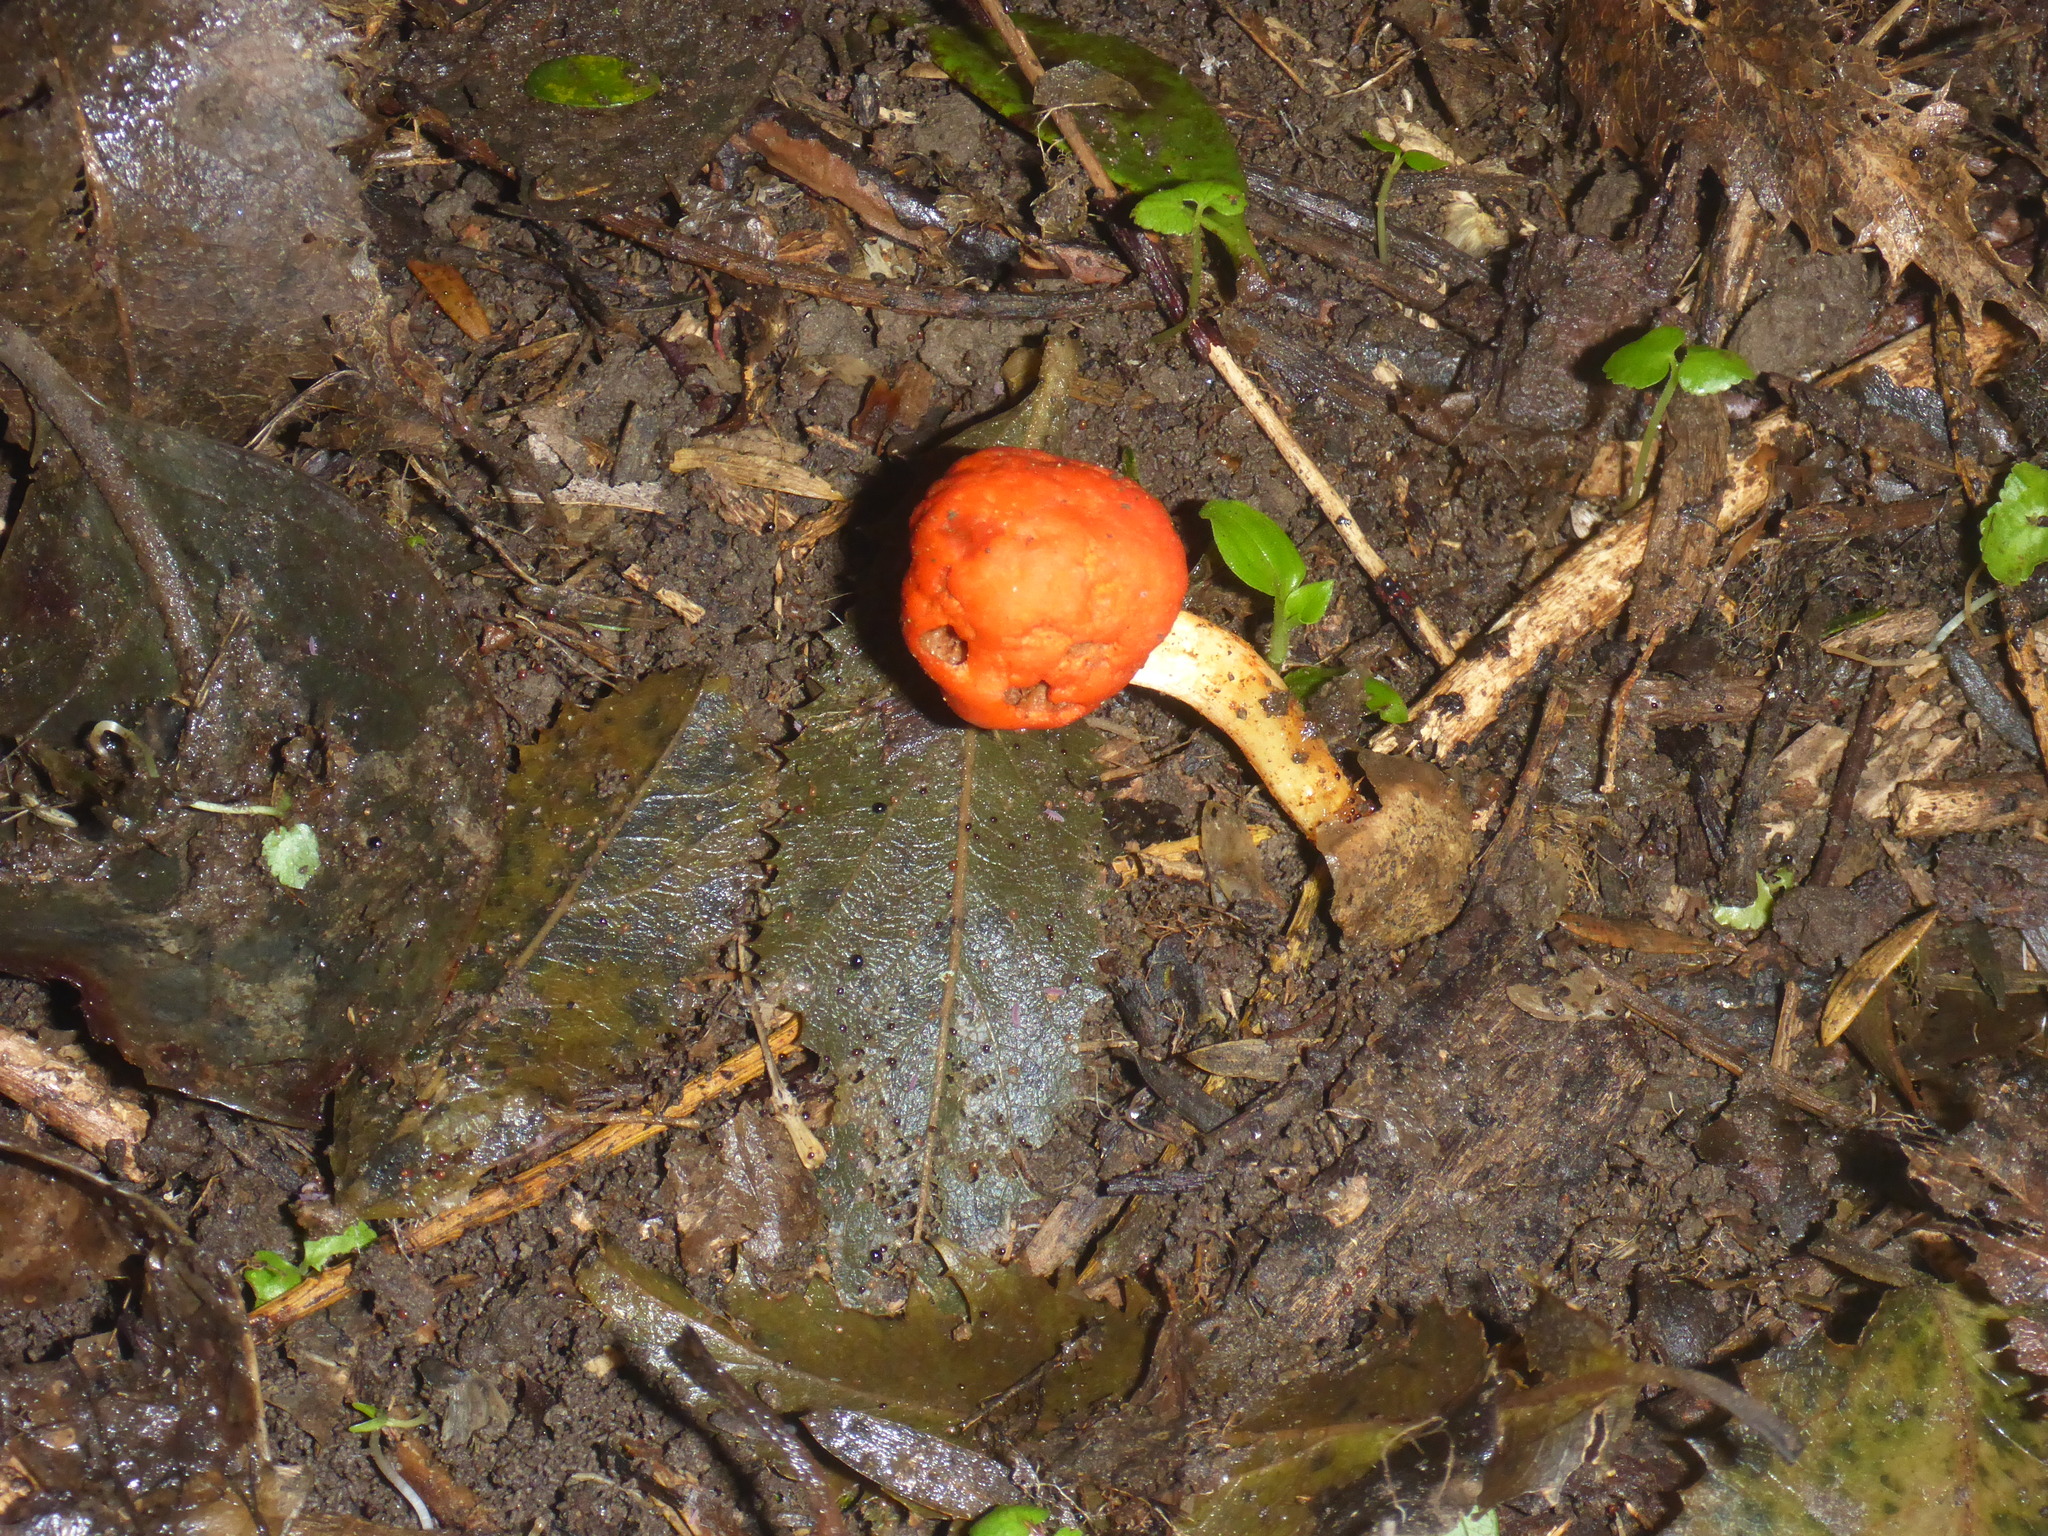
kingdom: Fungi
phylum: Basidiomycota
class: Agaricomycetes
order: Agaricales
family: Strophariaceae
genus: Leratiomyces
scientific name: Leratiomyces erythrocephalus
